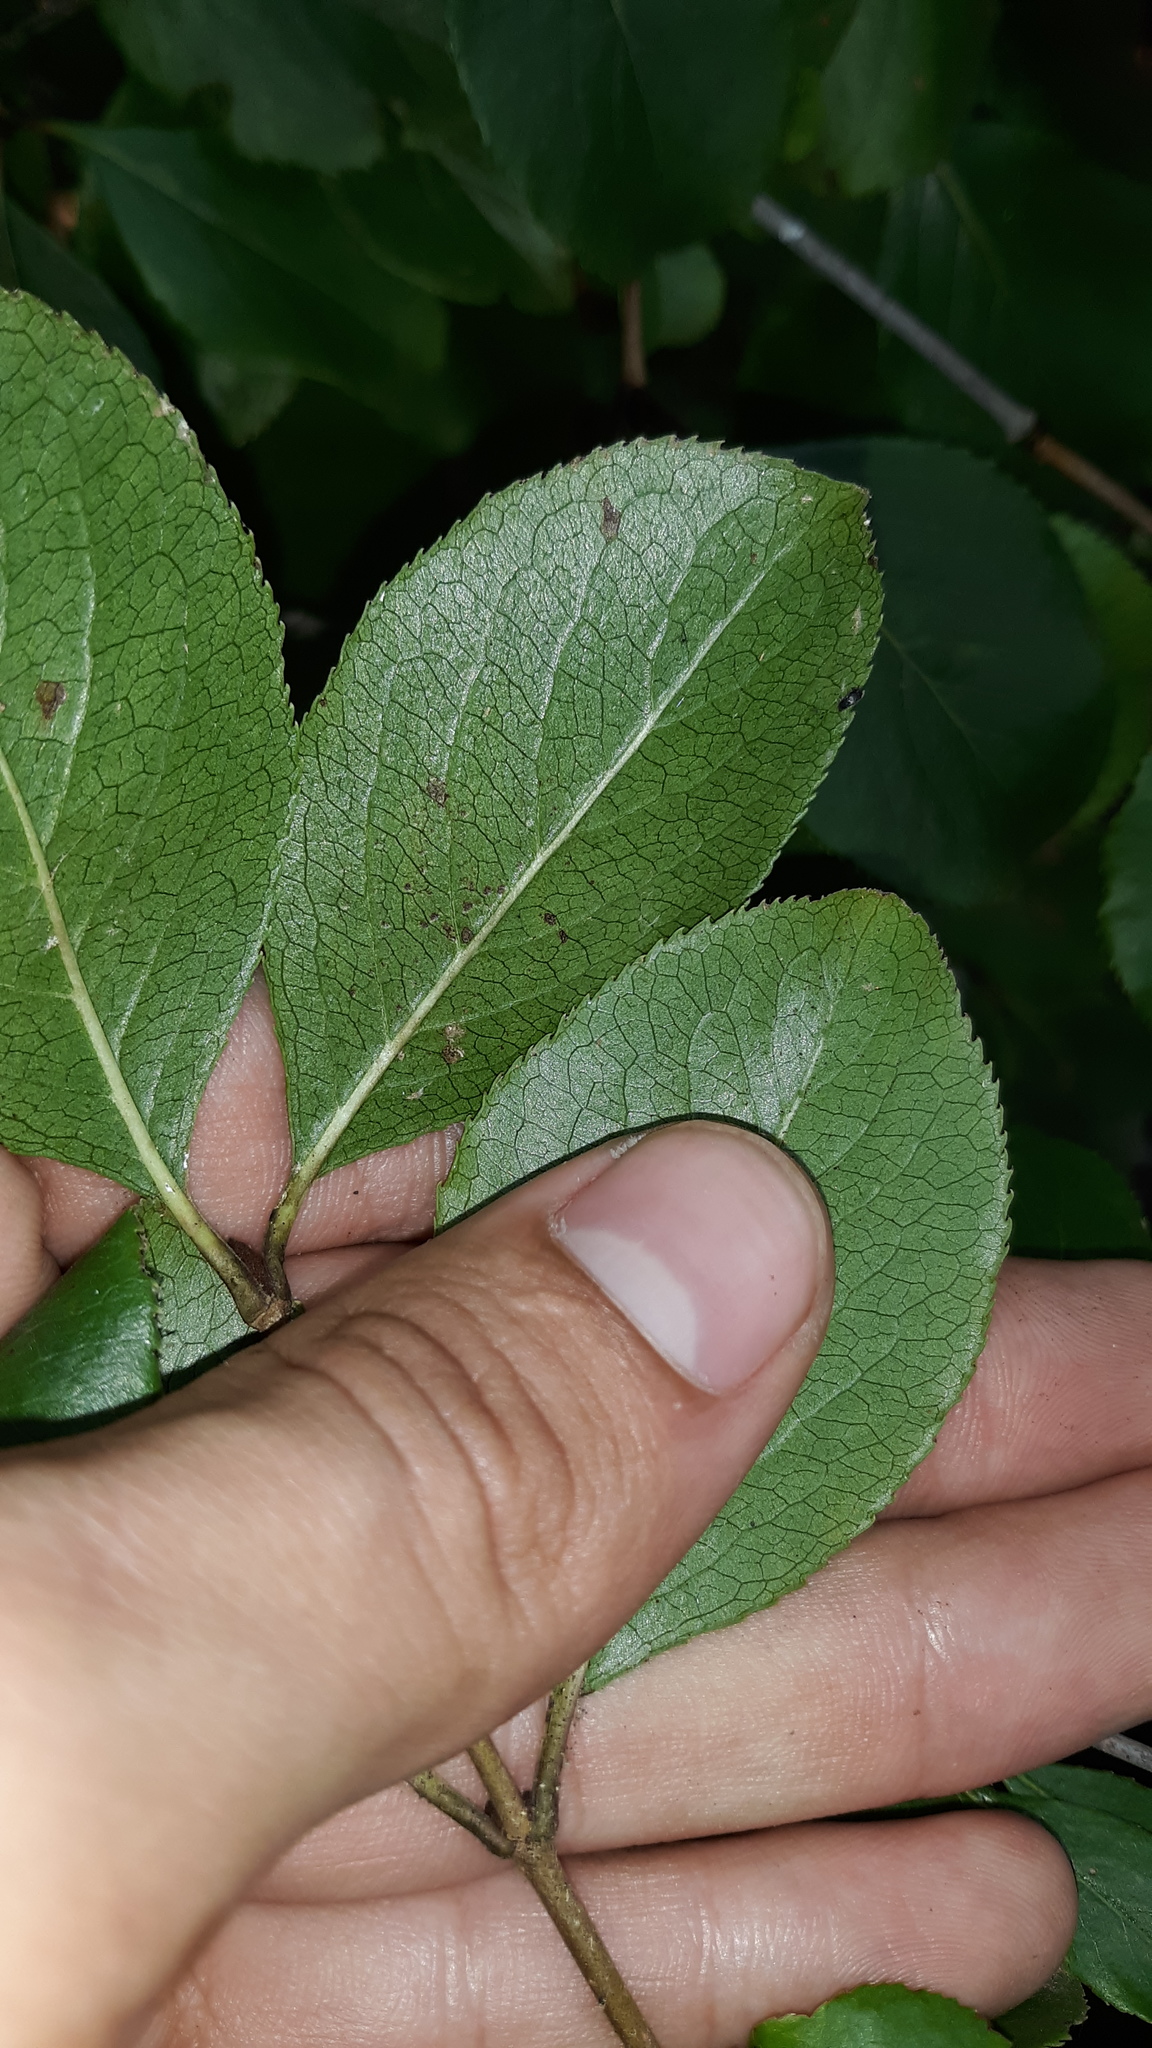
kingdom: Plantae
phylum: Tracheophyta
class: Magnoliopsida
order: Dipsacales
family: Viburnaceae
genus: Viburnum
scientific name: Viburnum rufidulum
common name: Blue haw
